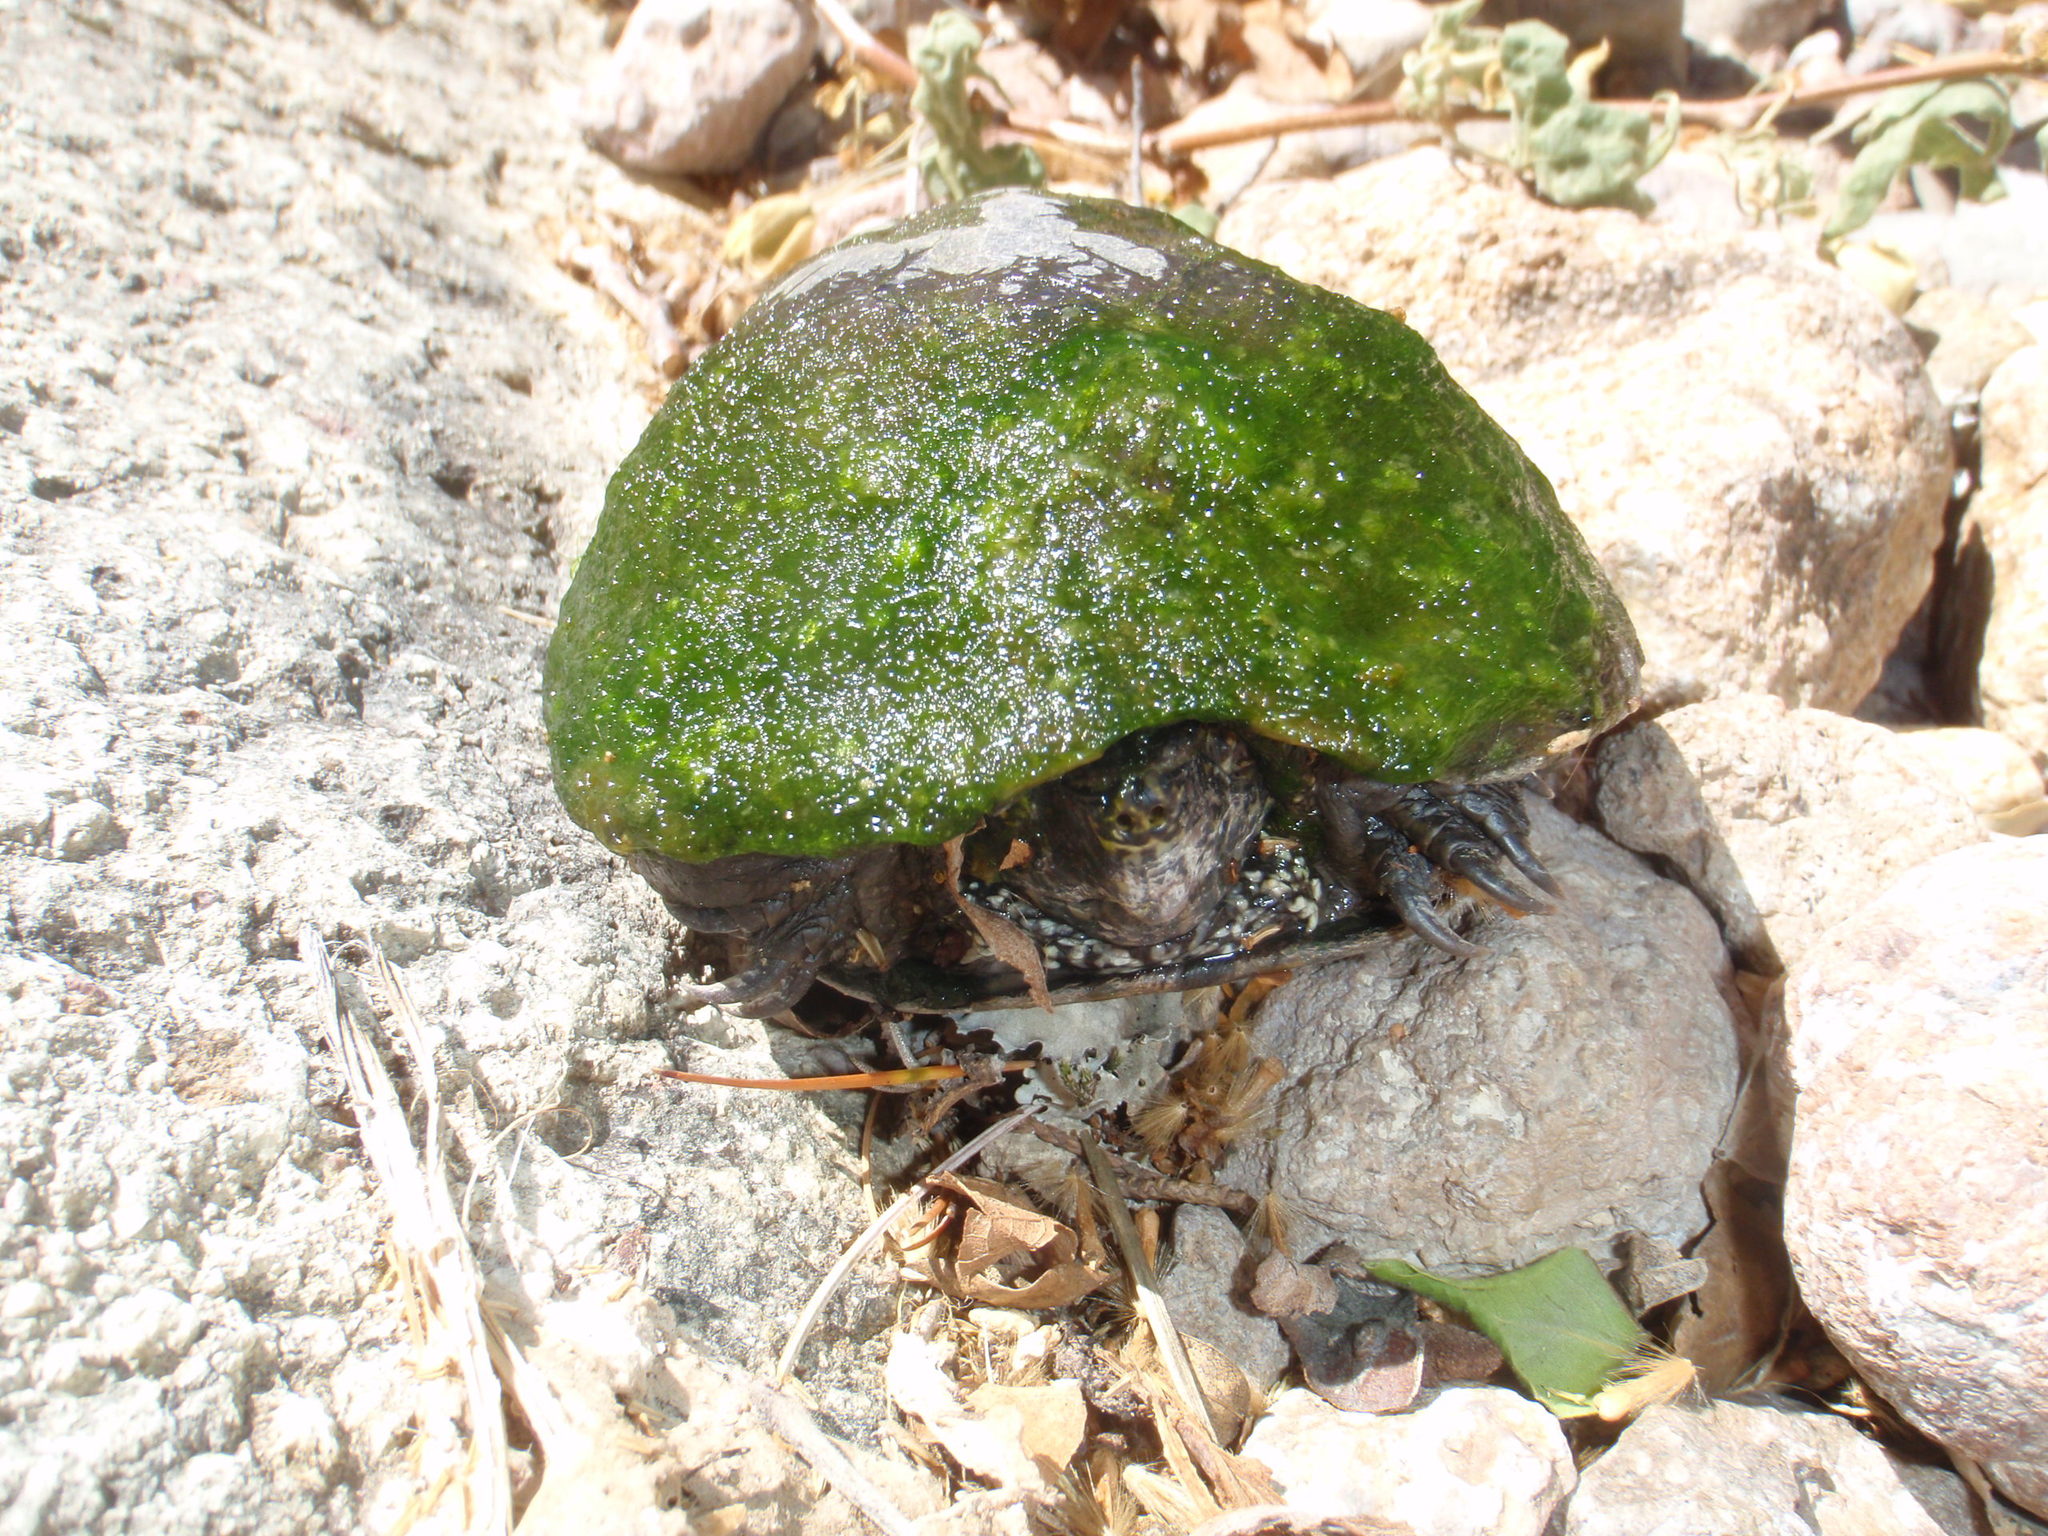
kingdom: Animalia
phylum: Chordata
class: Testudines
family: Kinosternidae
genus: Kinosternon
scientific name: Kinosternon sonoriense
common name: Sonora mud turtle
